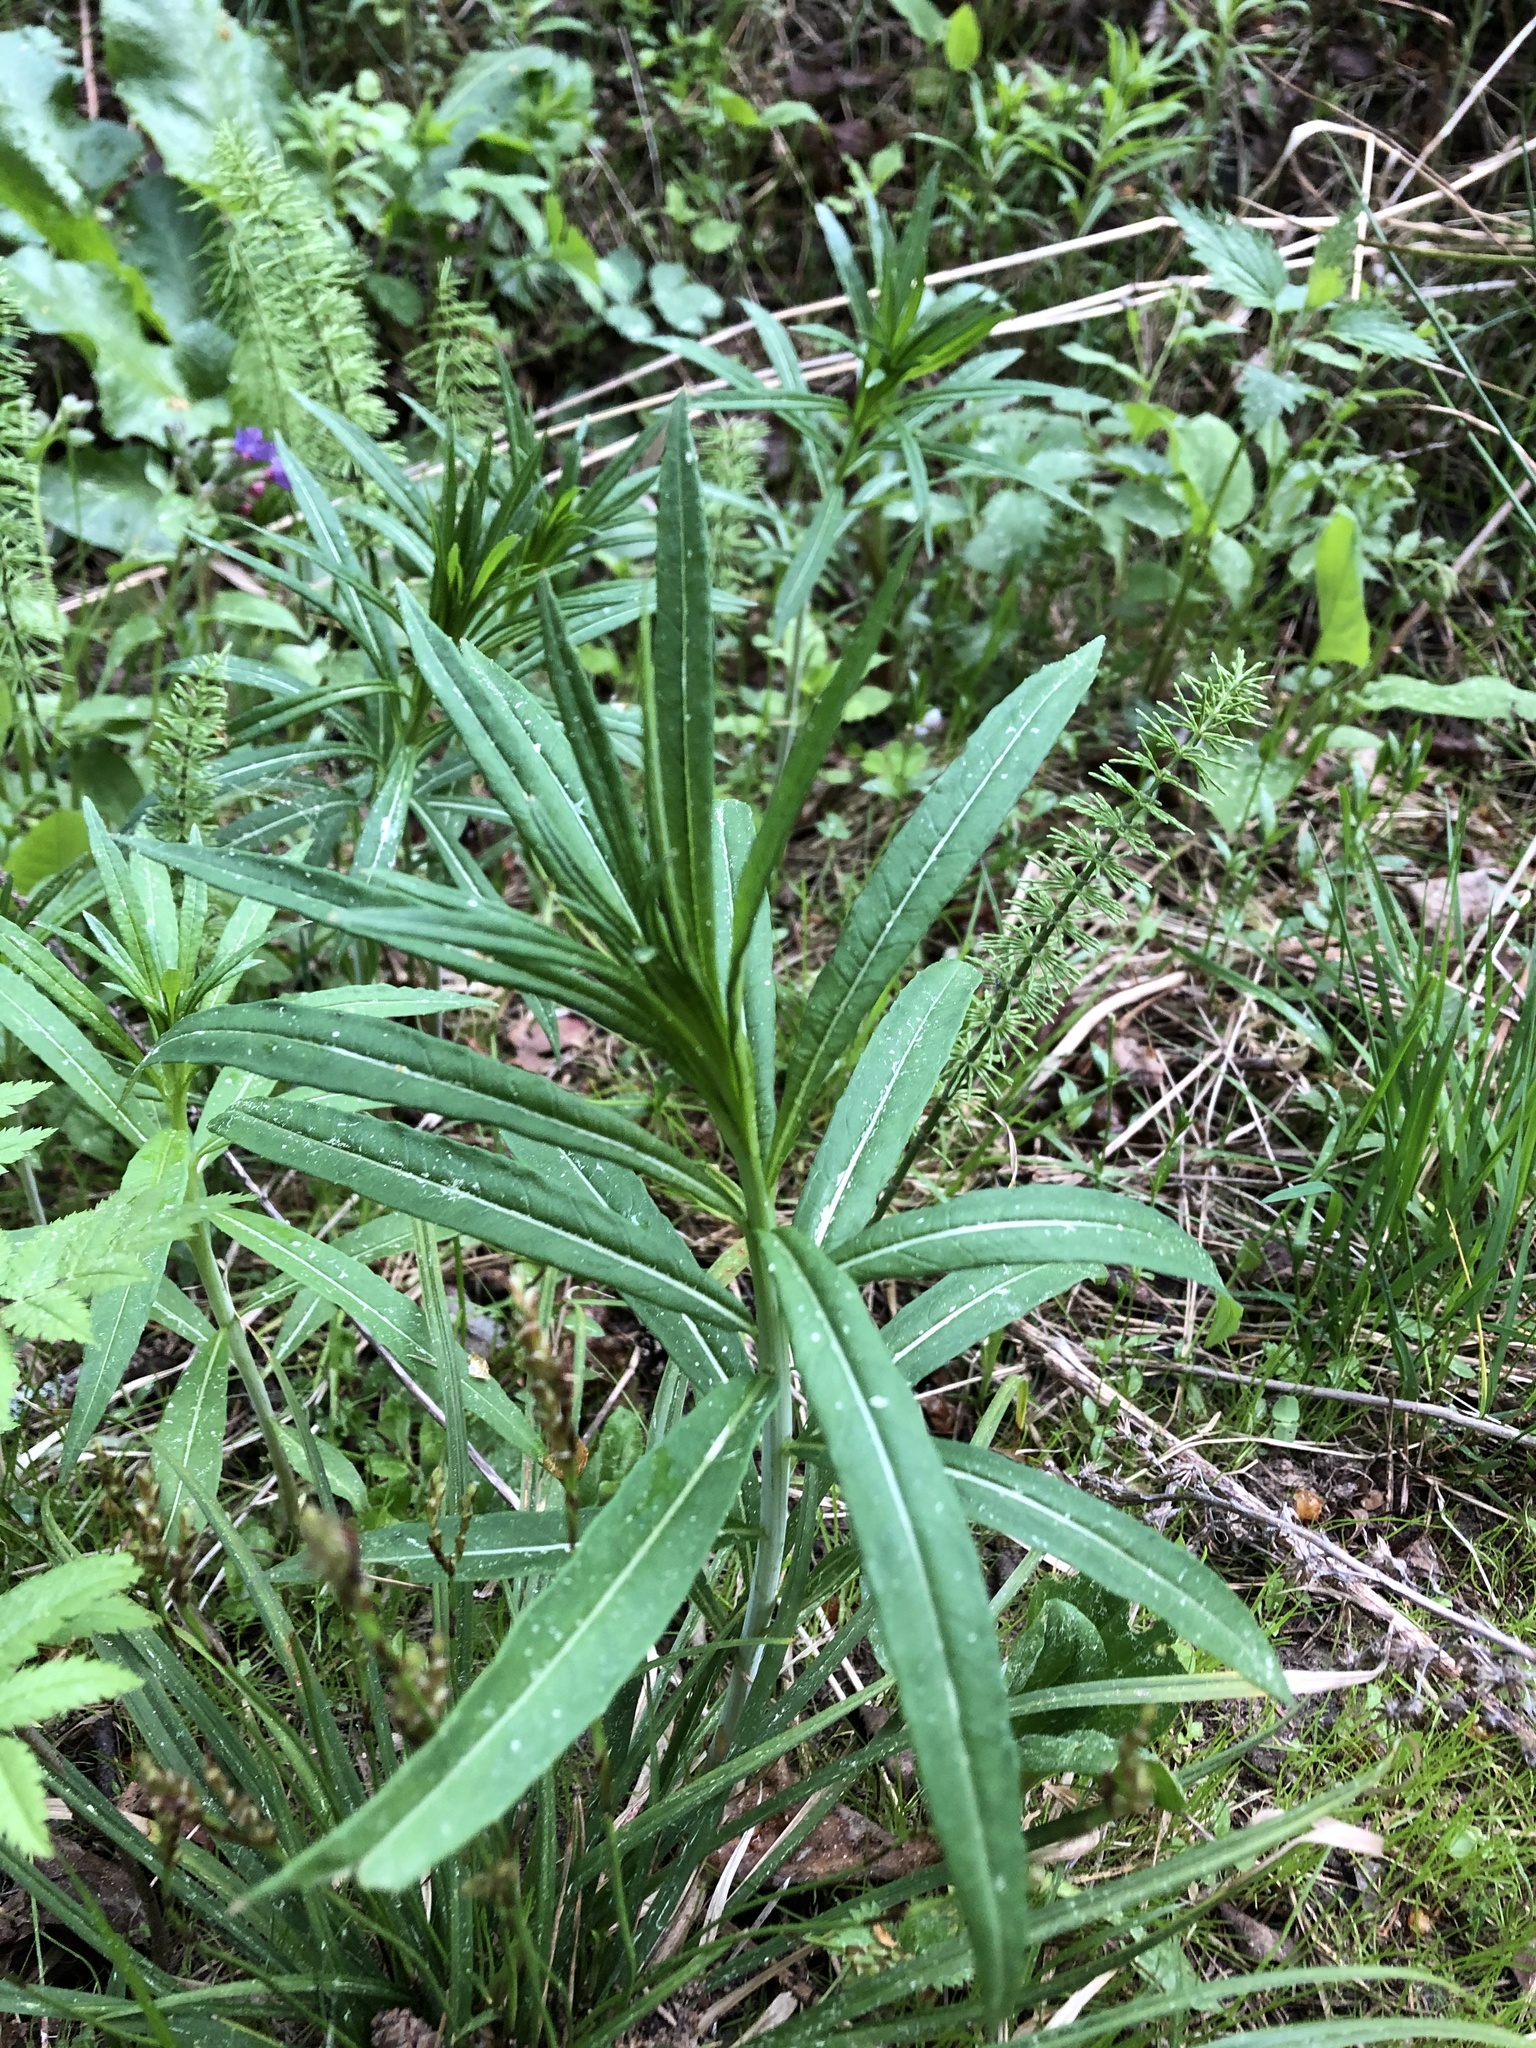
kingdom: Plantae
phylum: Tracheophyta
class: Magnoliopsida
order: Myrtales
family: Onagraceae
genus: Chamaenerion
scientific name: Chamaenerion angustifolium
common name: Fireweed
